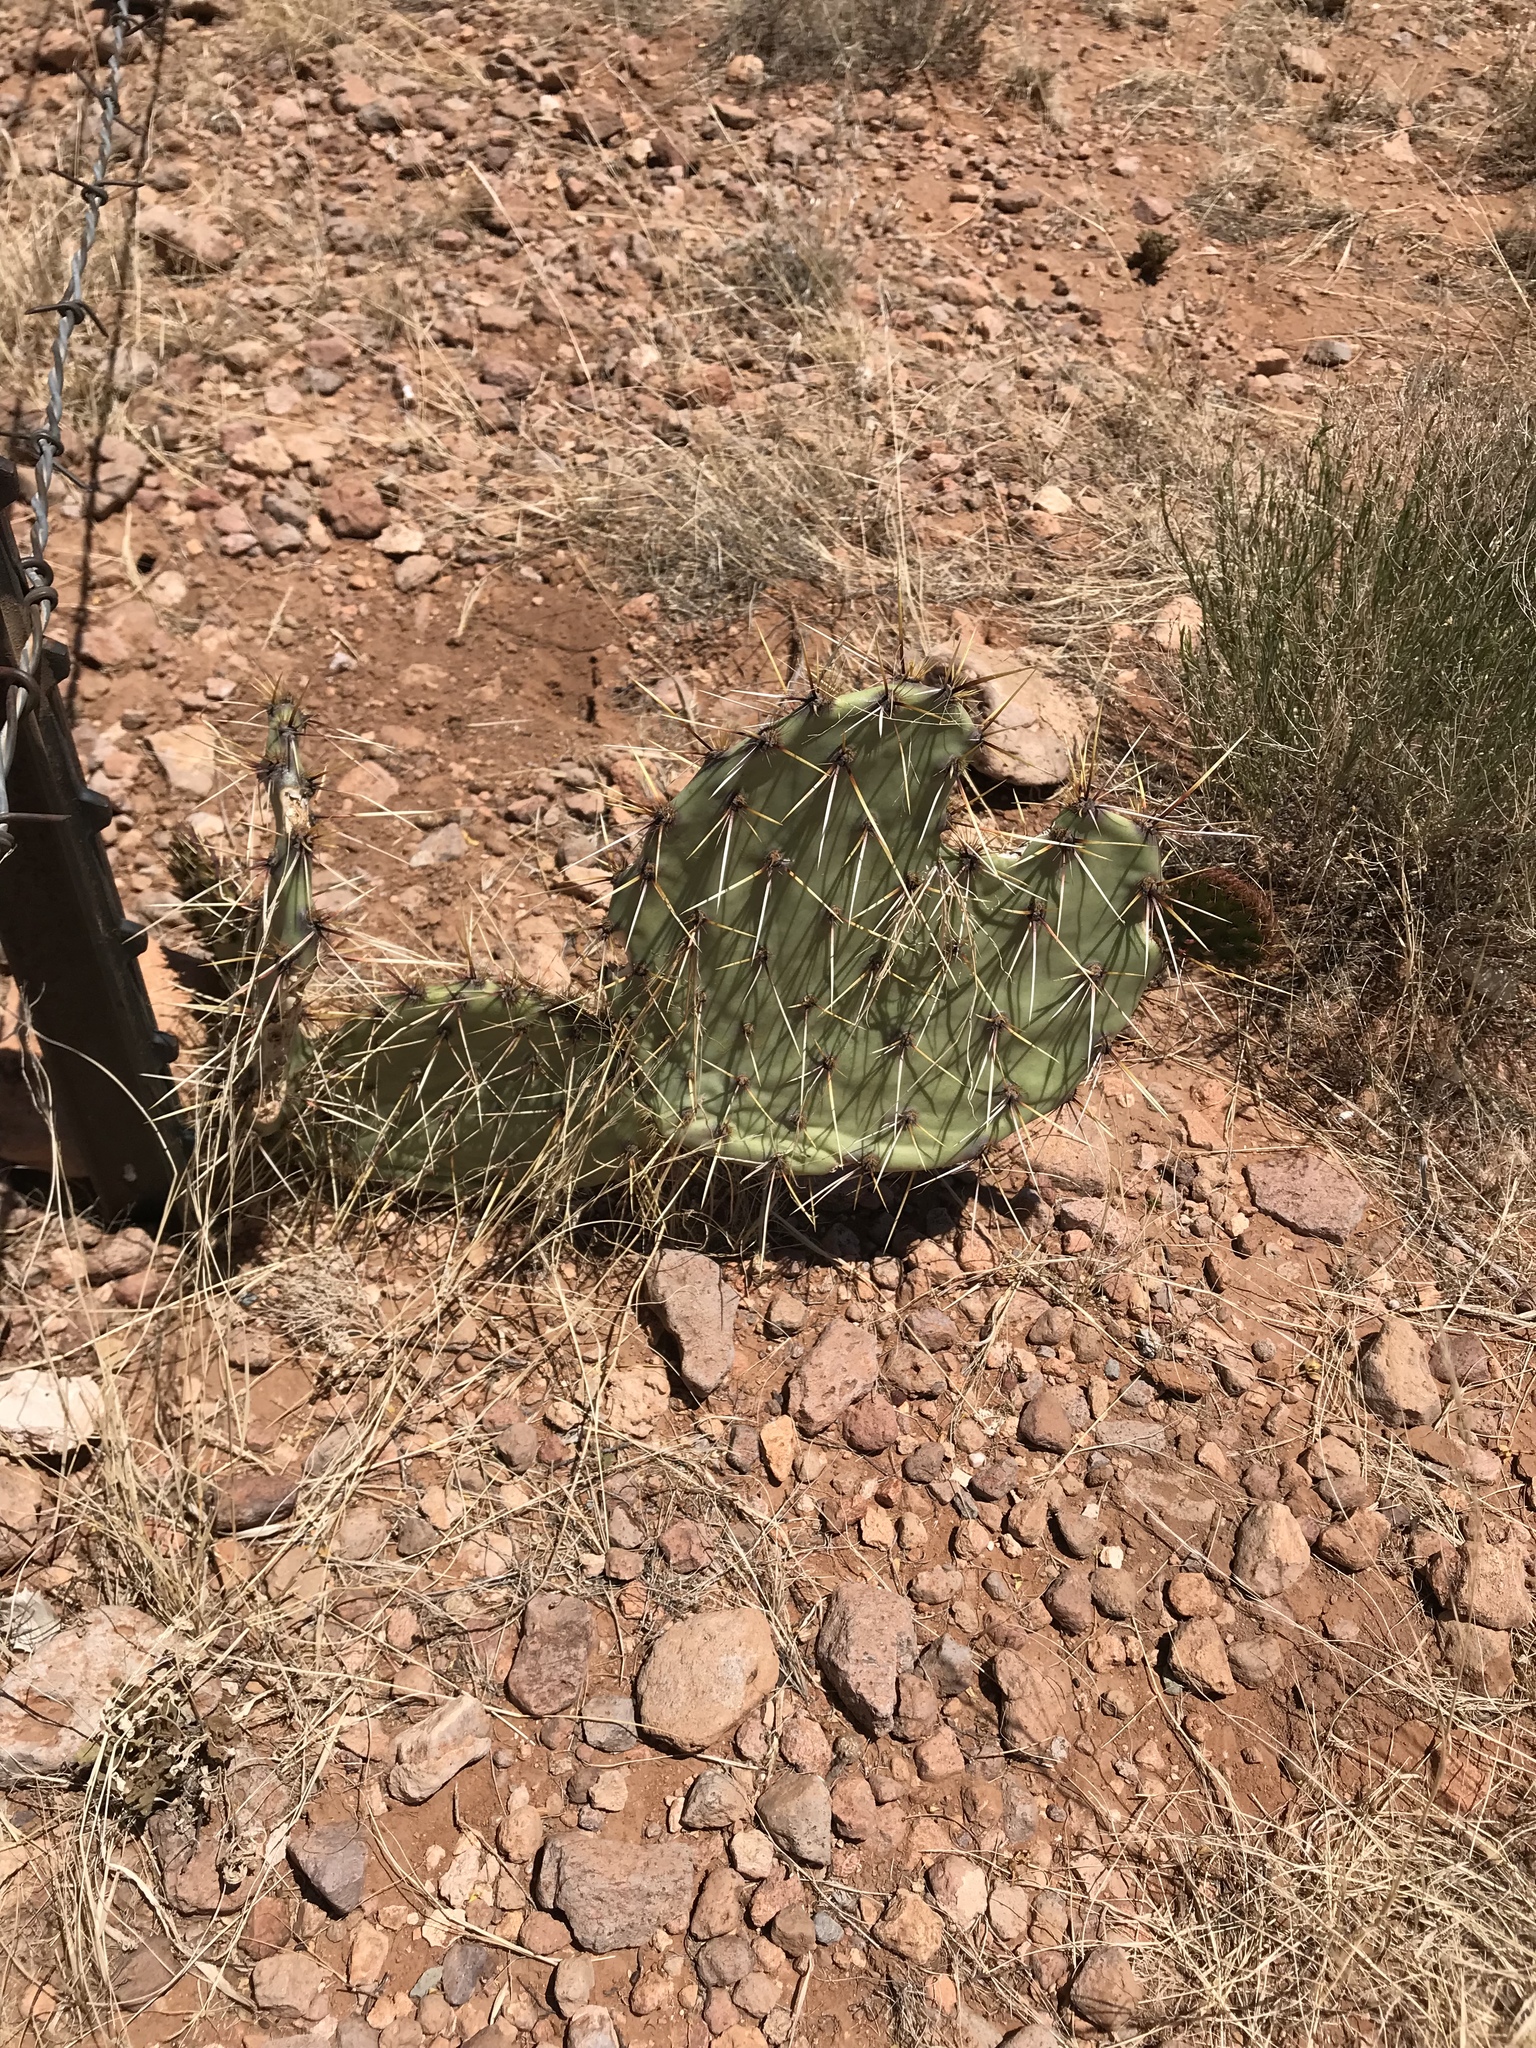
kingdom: Plantae
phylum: Tracheophyta
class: Magnoliopsida
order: Caryophyllales
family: Cactaceae
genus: Opuntia
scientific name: Opuntia phaeacantha
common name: New mexico prickly-pear
